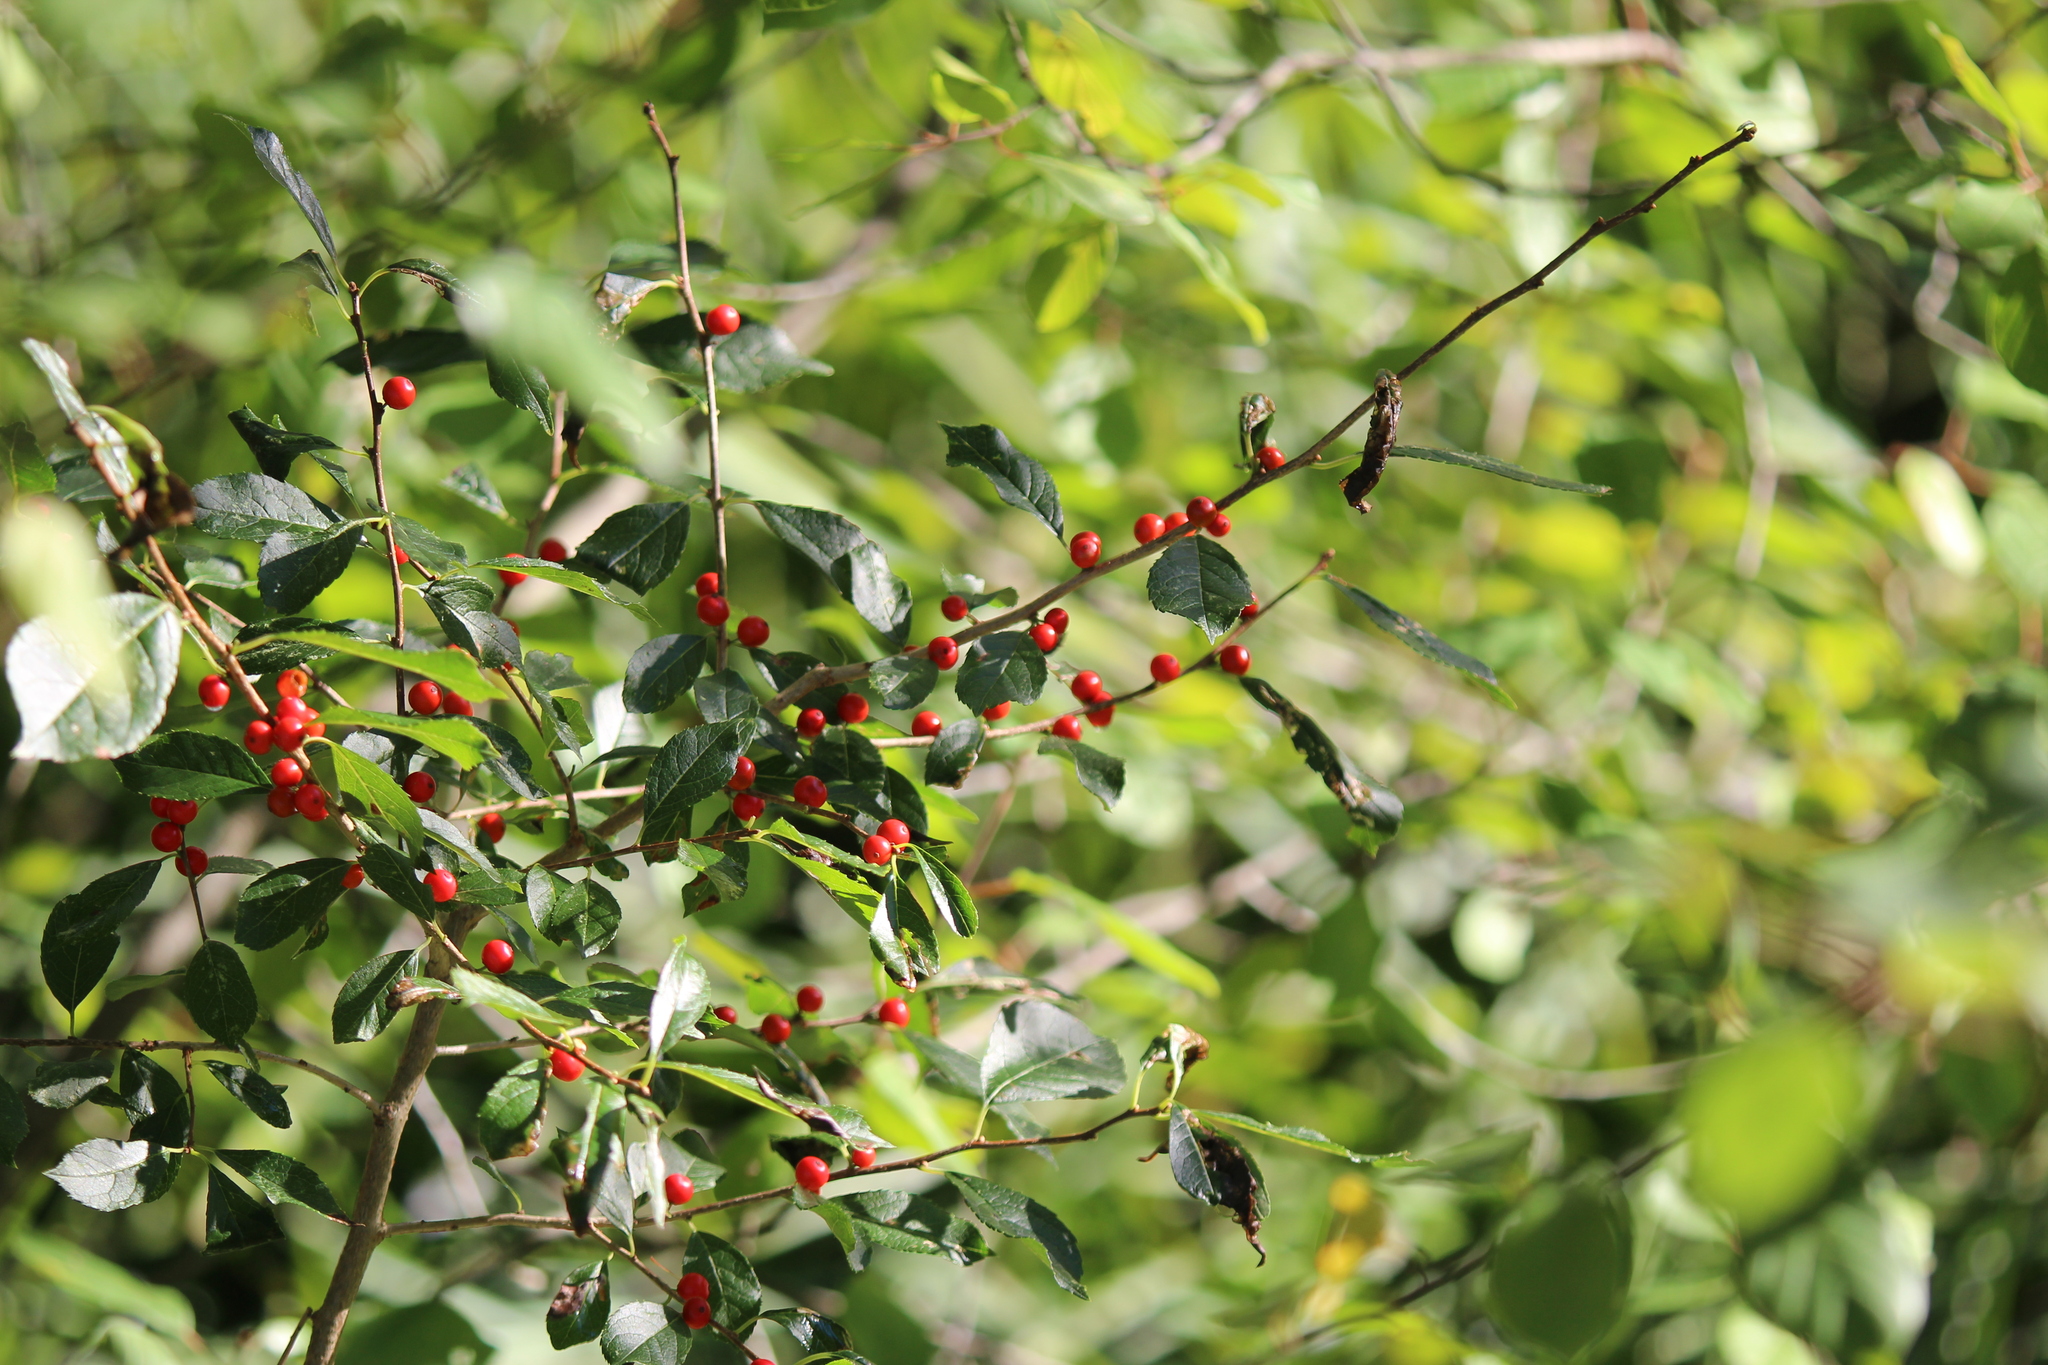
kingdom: Plantae
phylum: Tracheophyta
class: Magnoliopsida
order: Aquifoliales
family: Aquifoliaceae
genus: Ilex
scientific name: Ilex verticillata
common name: Virginia winterberry
